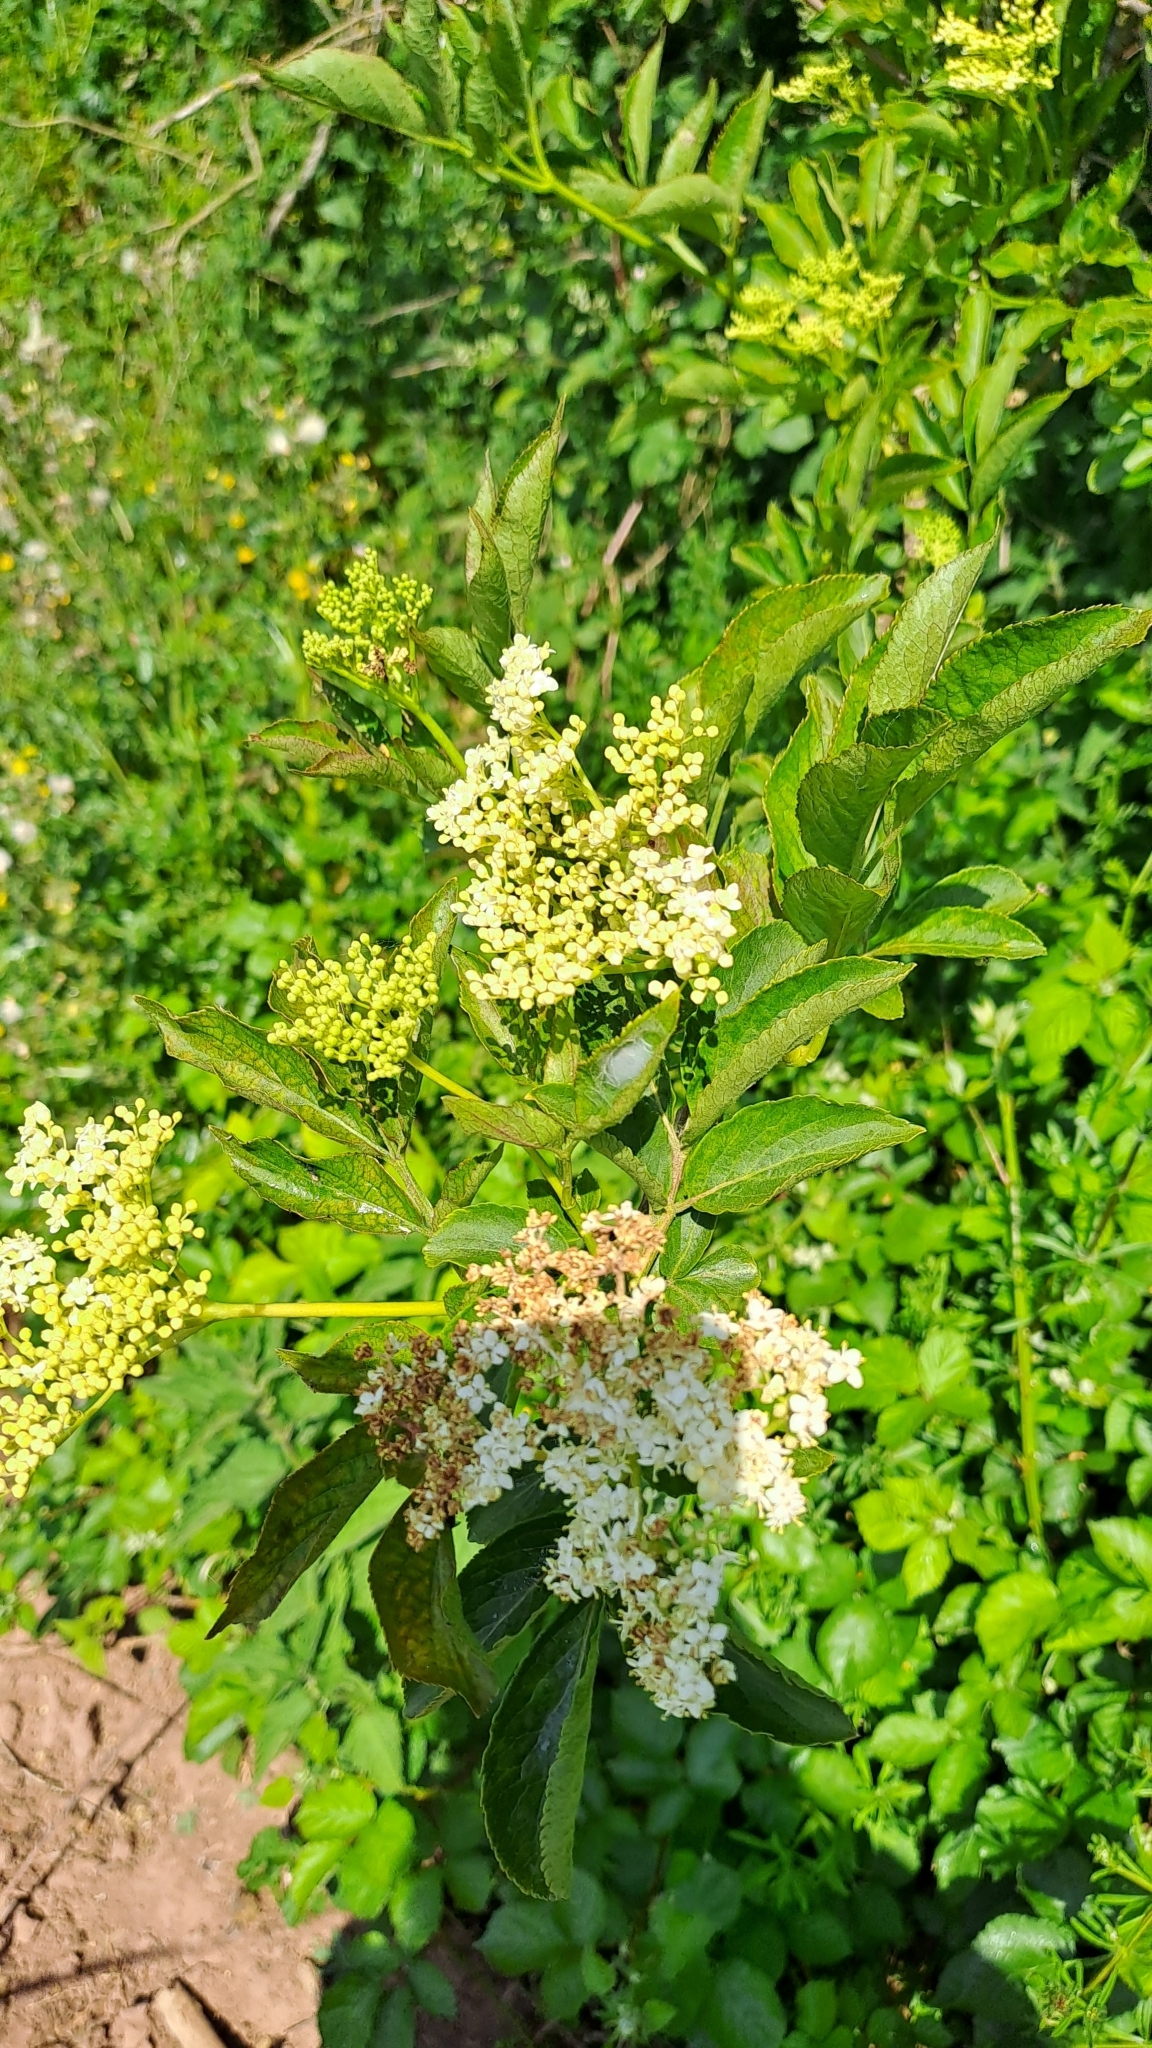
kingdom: Plantae
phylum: Tracheophyta
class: Magnoliopsida
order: Dipsacales
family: Viburnaceae
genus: Sambucus
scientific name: Sambucus nigra
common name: Elder
